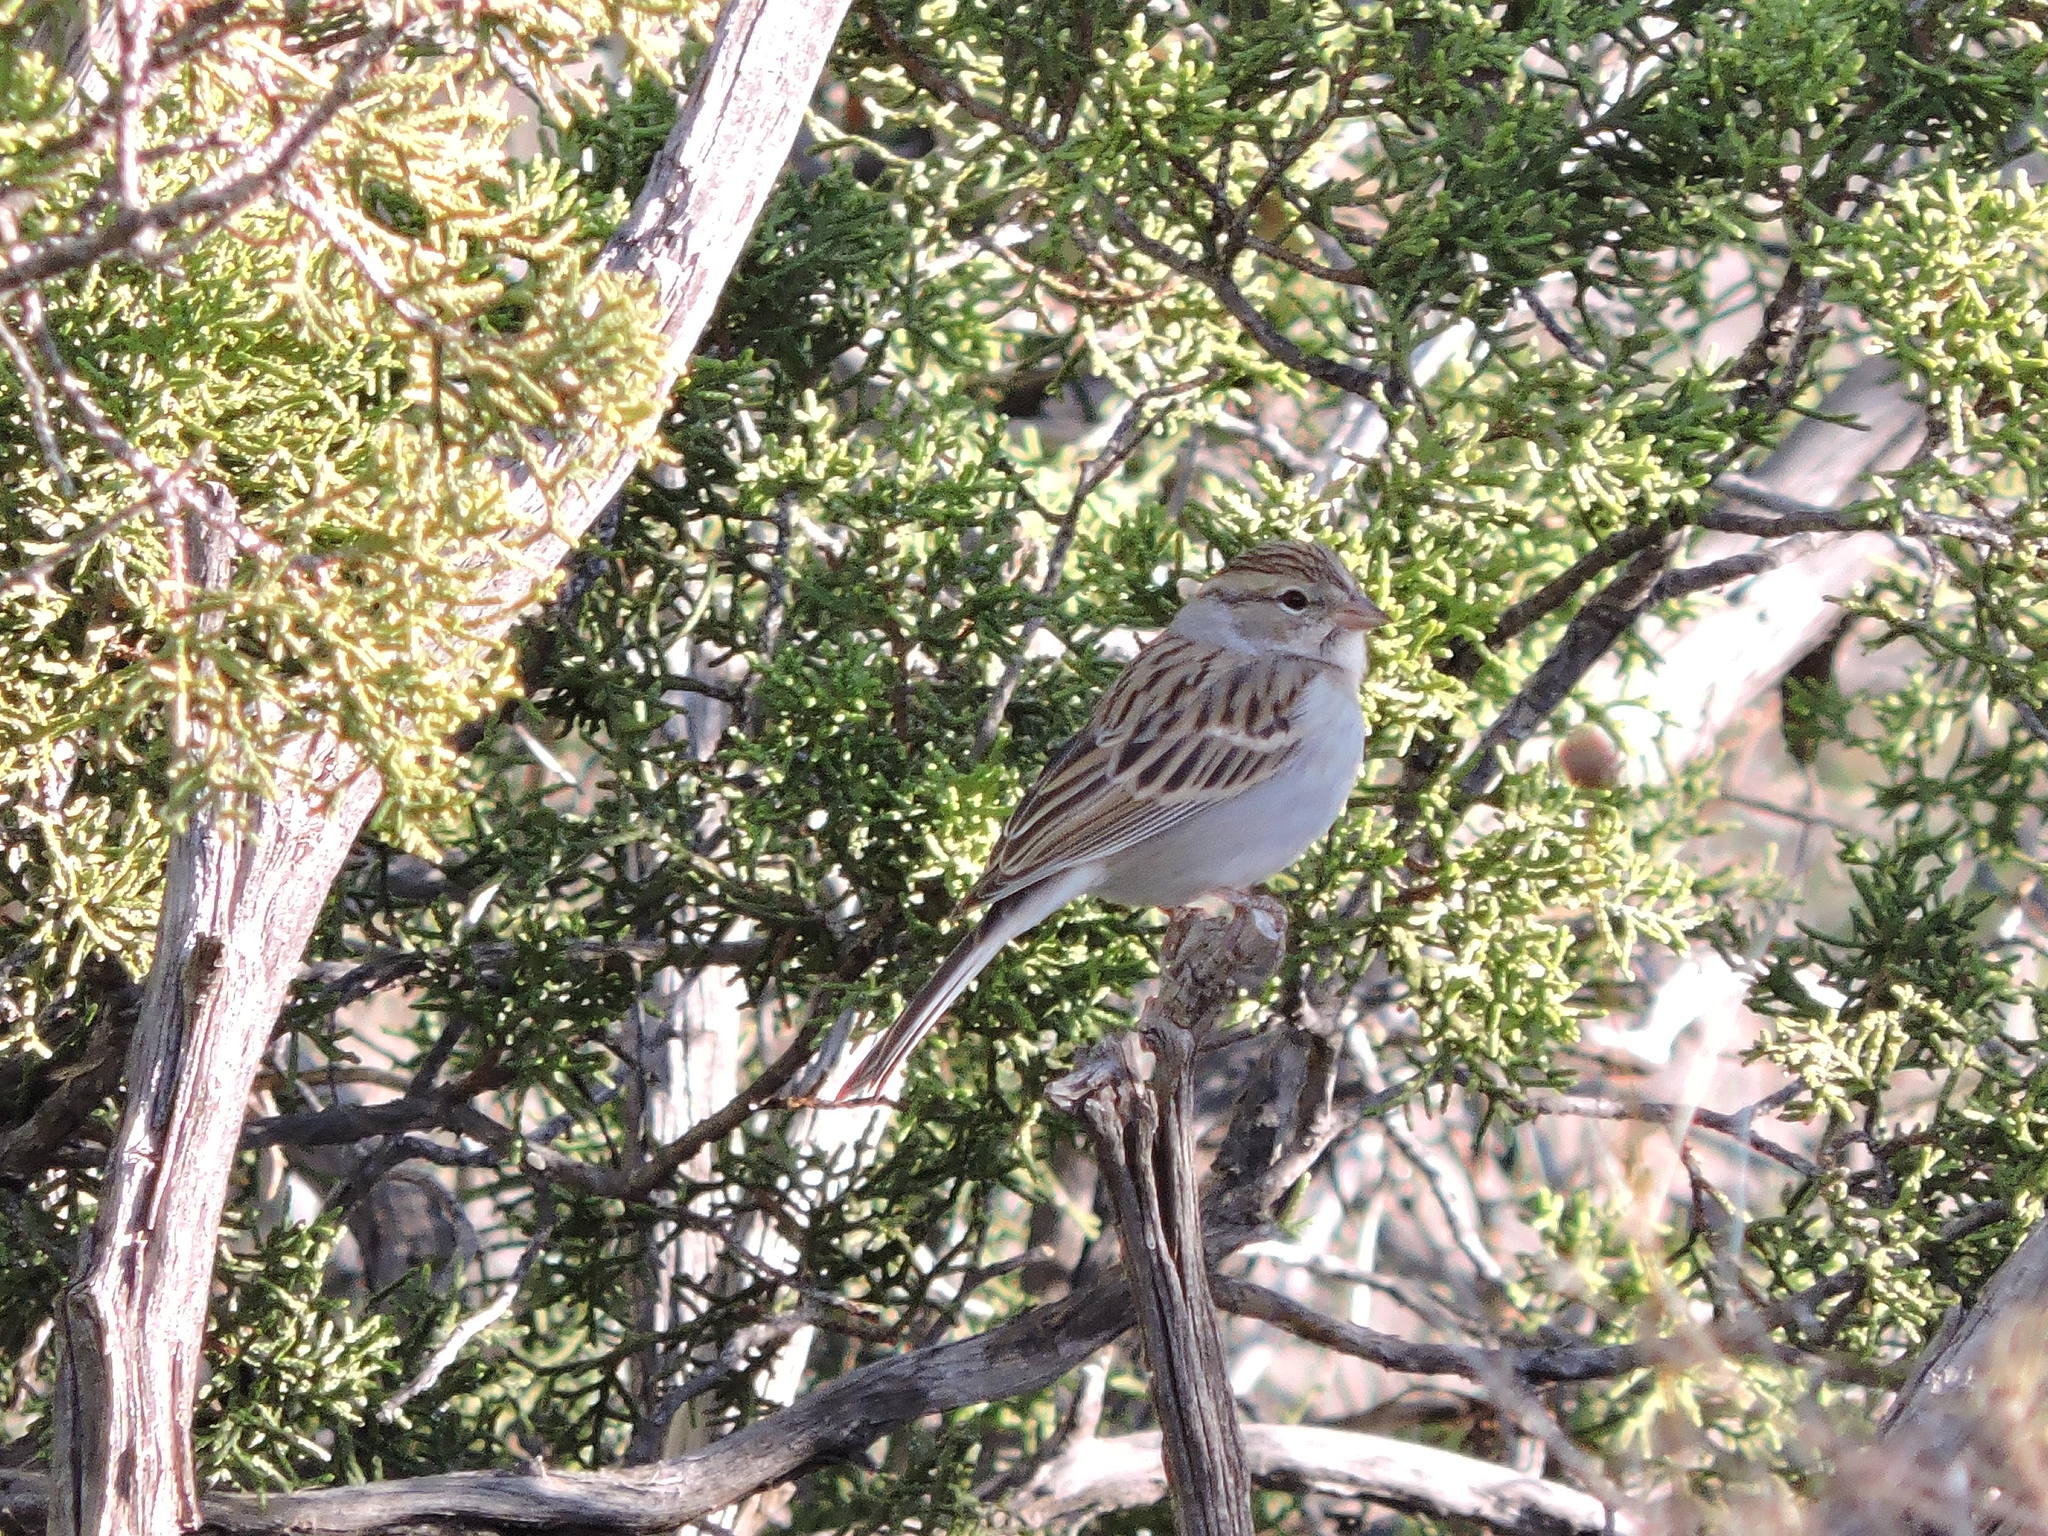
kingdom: Animalia
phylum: Chordata
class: Aves
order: Passeriformes
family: Passerellidae
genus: Spizella
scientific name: Spizella passerina
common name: Chipping sparrow
